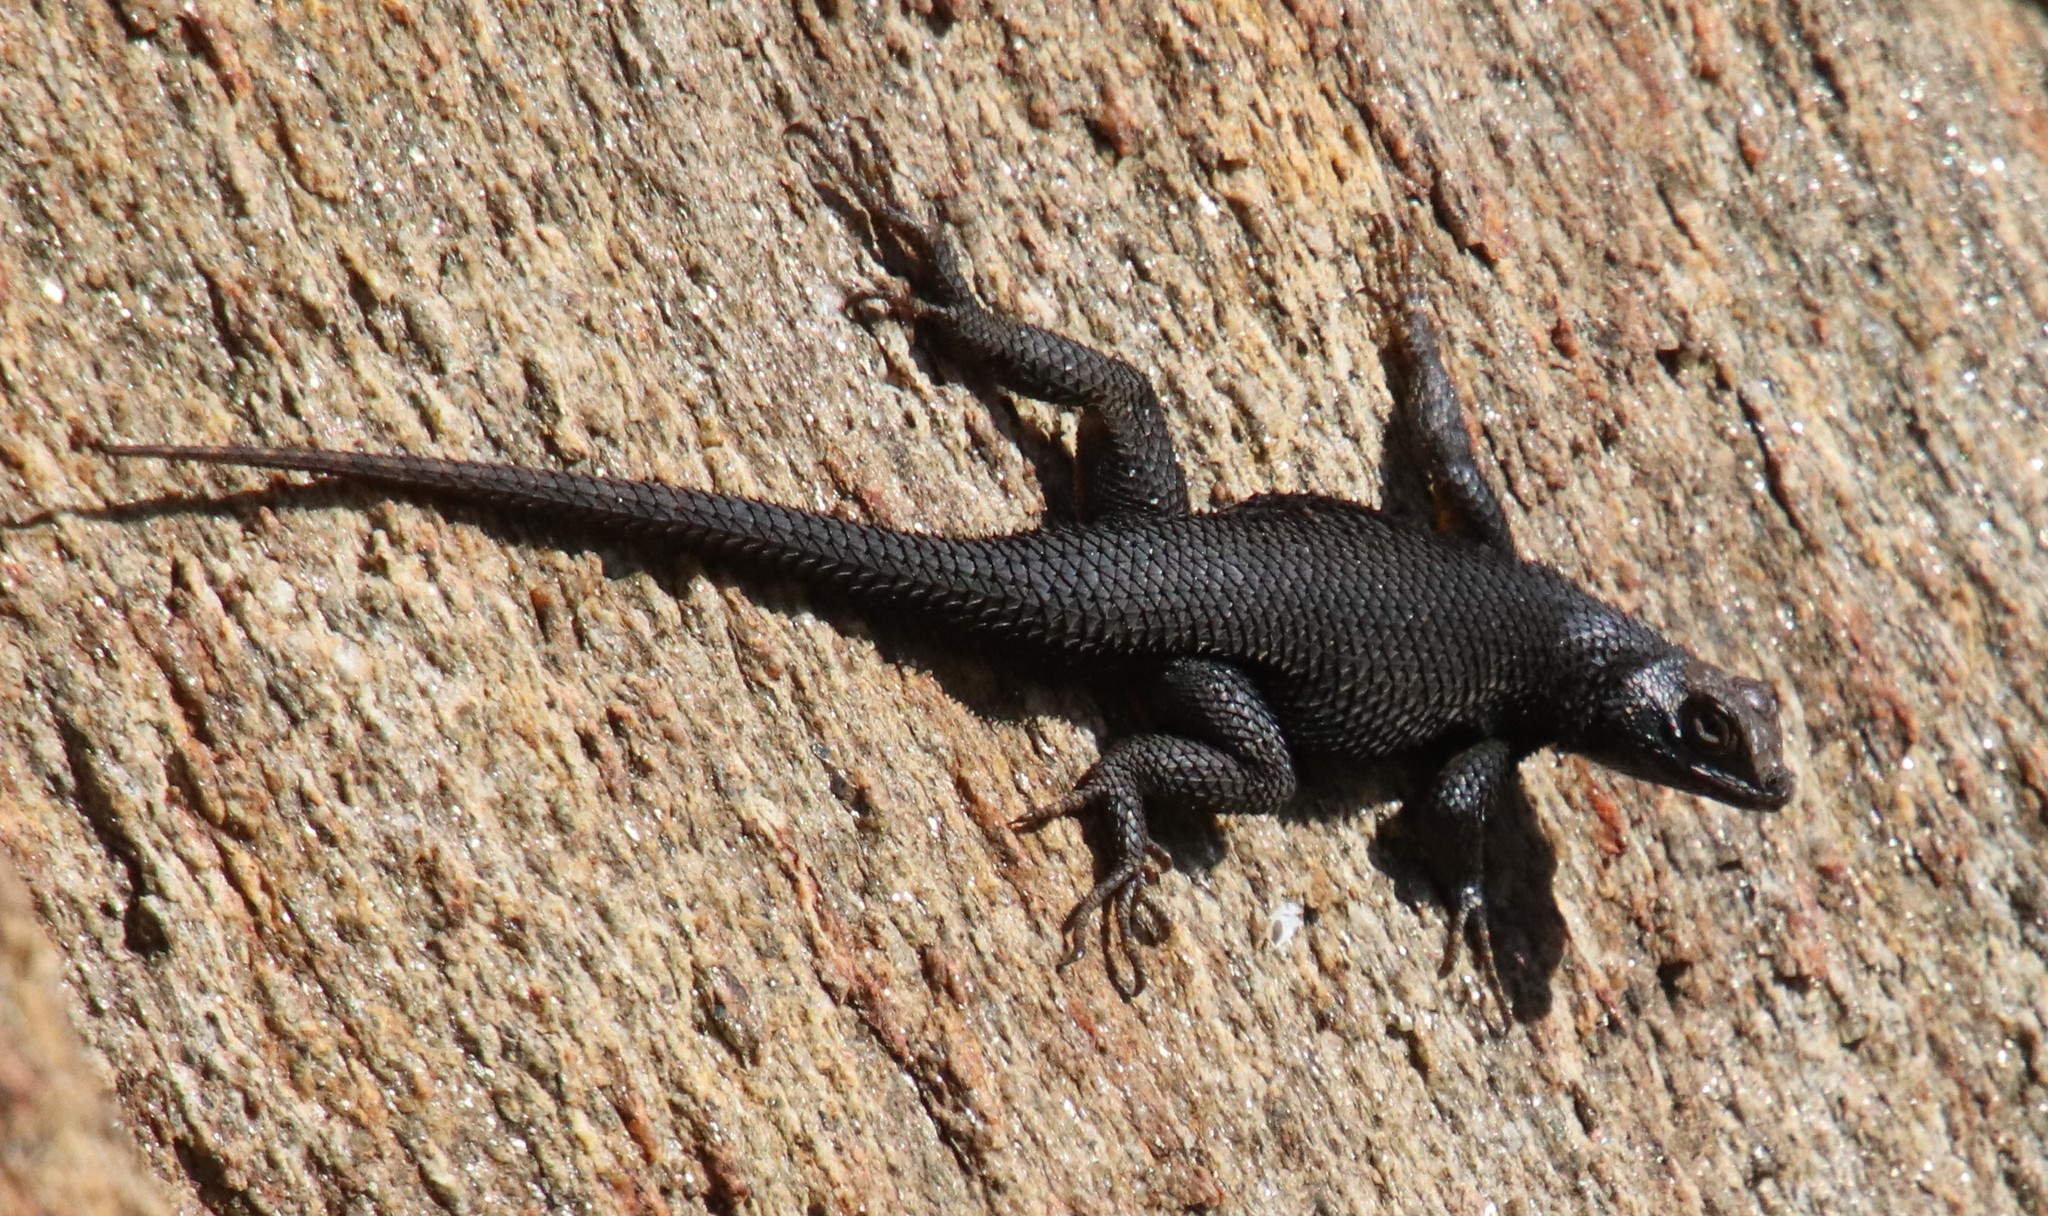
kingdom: Animalia
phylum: Chordata
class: Squamata
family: Phrynosomatidae
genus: Sceloporus
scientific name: Sceloporus orcutti
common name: Granite spiny lizard
